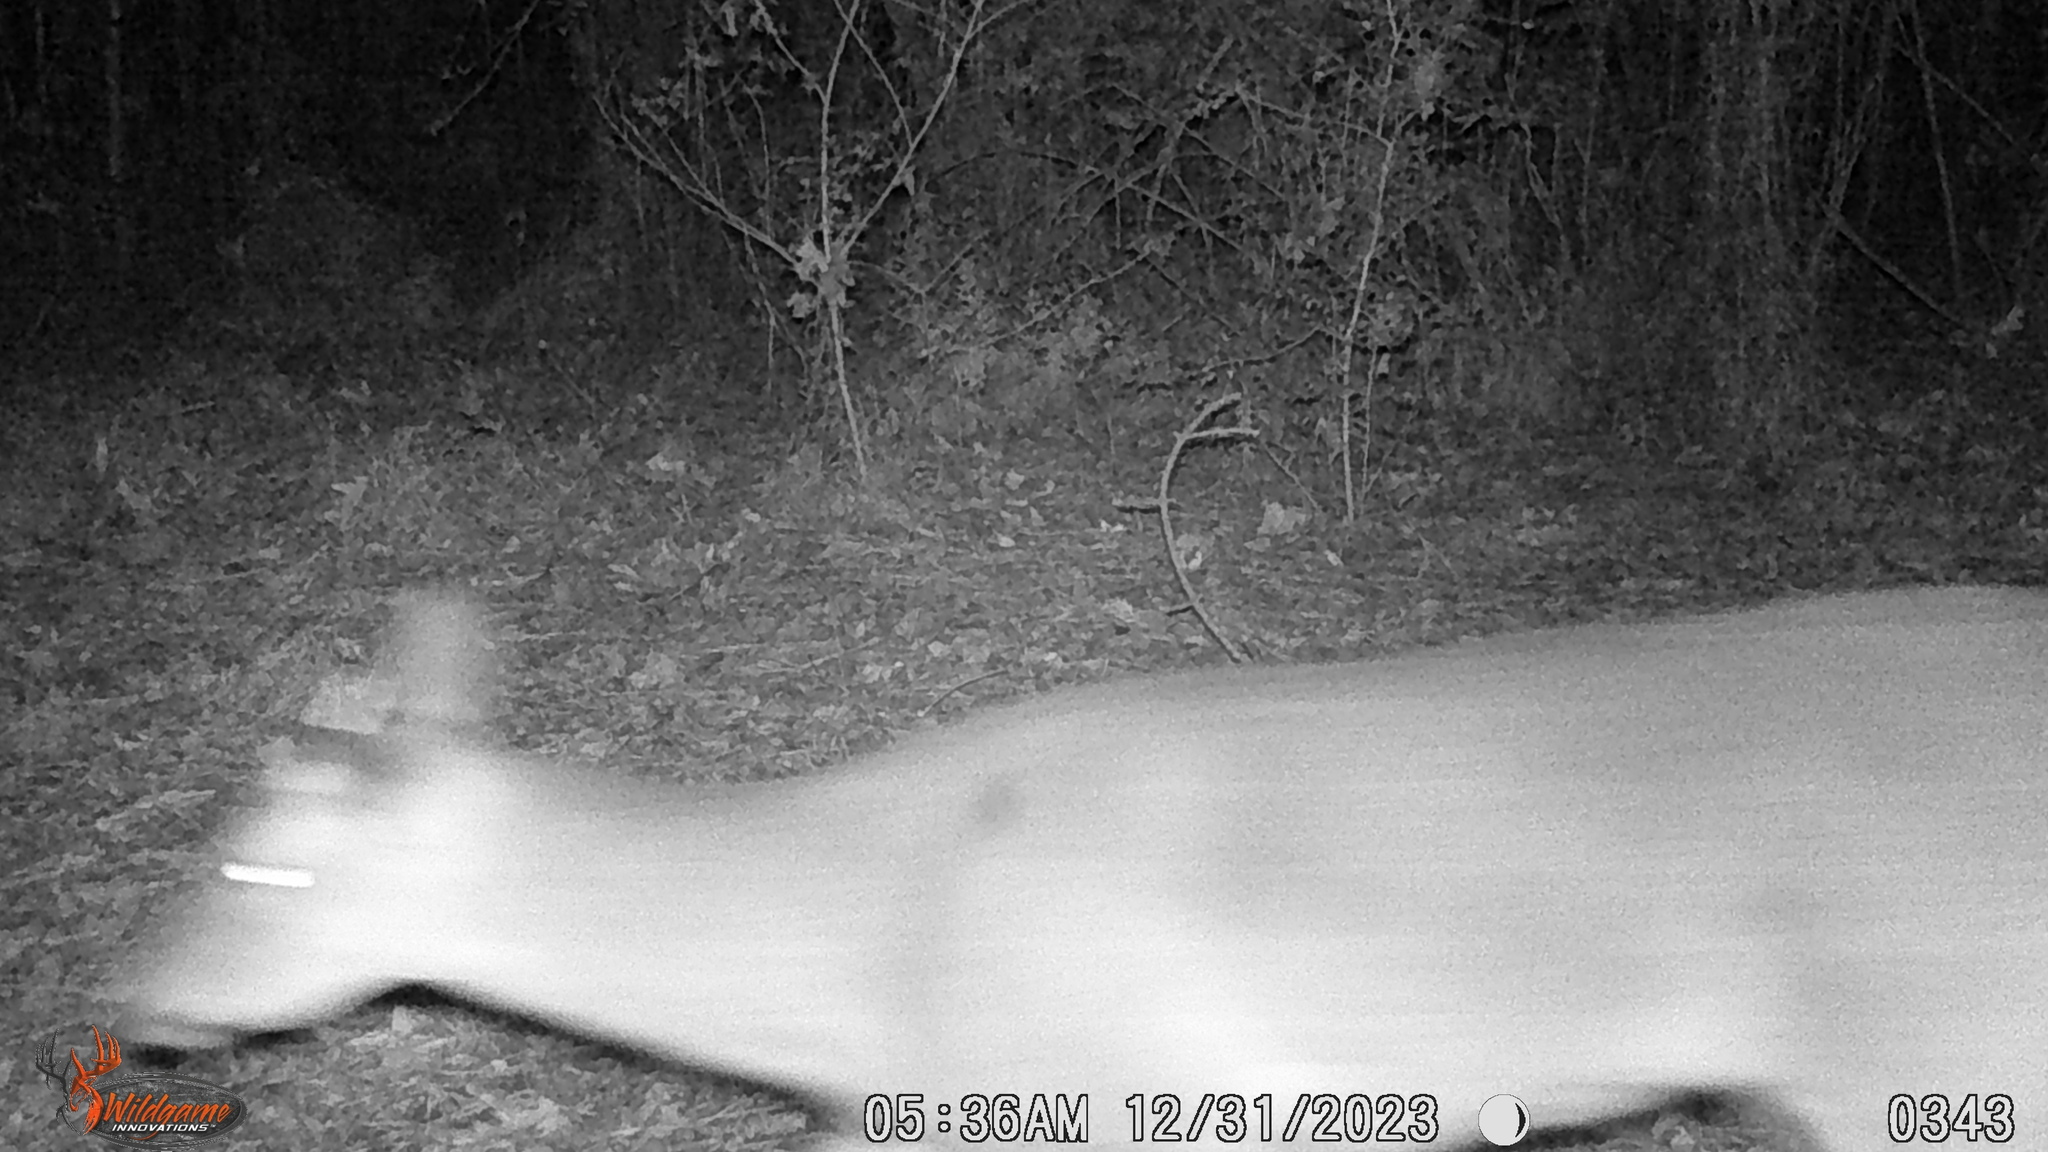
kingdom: Animalia
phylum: Chordata
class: Mammalia
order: Artiodactyla
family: Cervidae
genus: Odocoileus
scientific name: Odocoileus virginianus
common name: White-tailed deer
